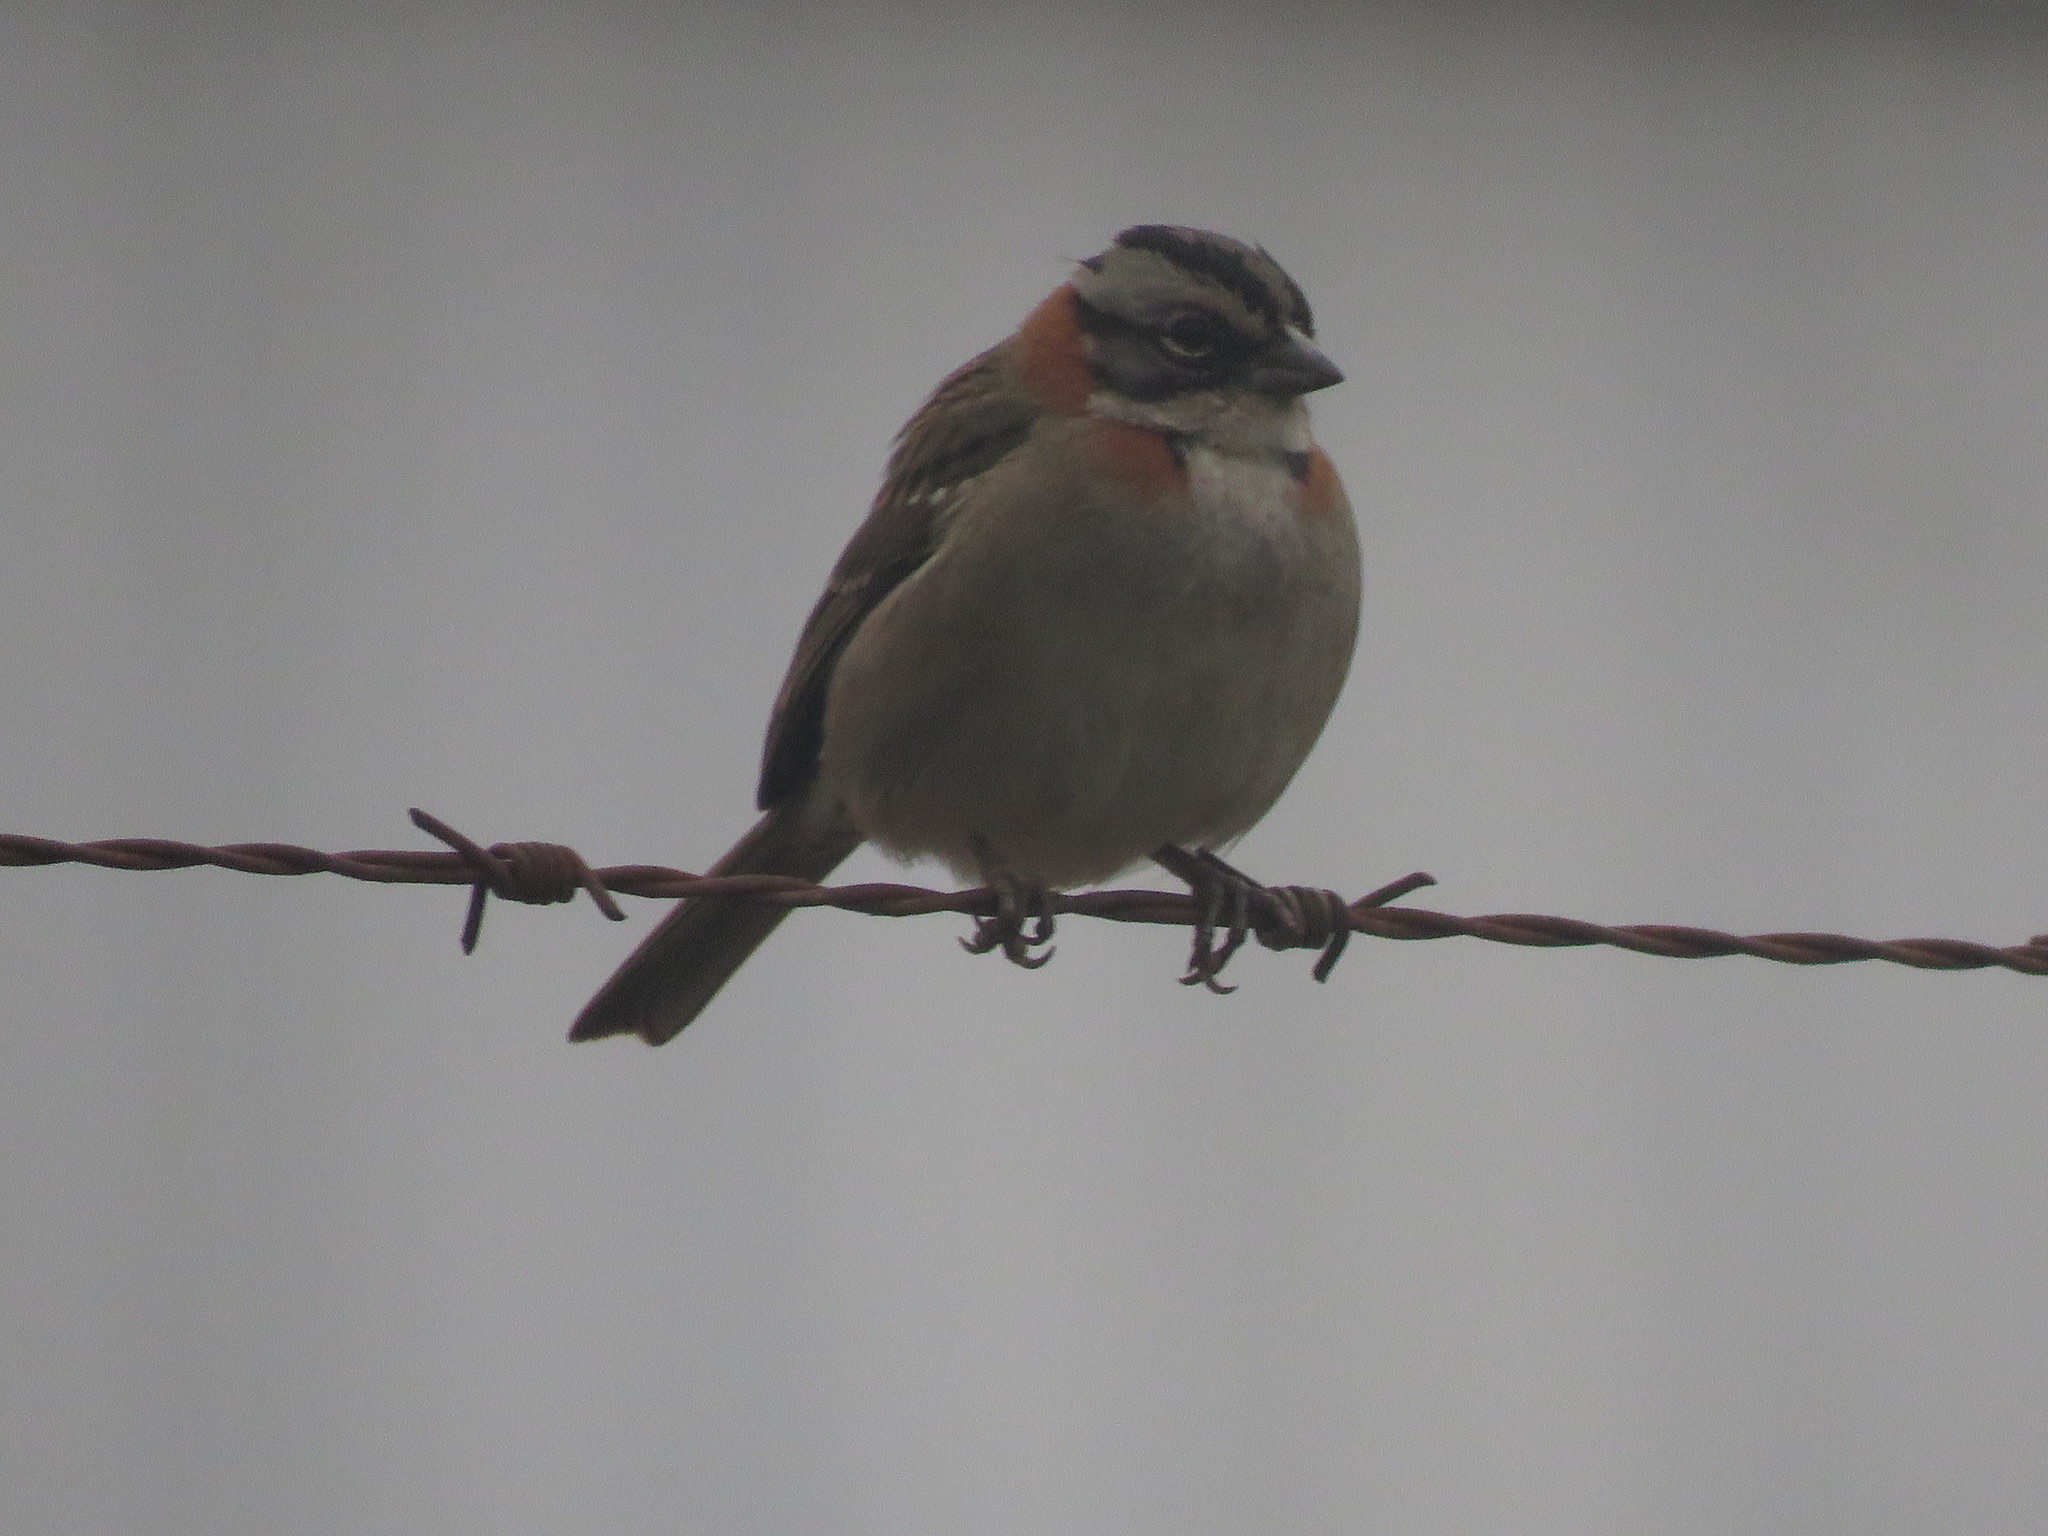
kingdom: Animalia
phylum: Chordata
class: Aves
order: Passeriformes
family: Passerellidae
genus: Zonotrichia
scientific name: Zonotrichia capensis
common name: Rufous-collared sparrow
